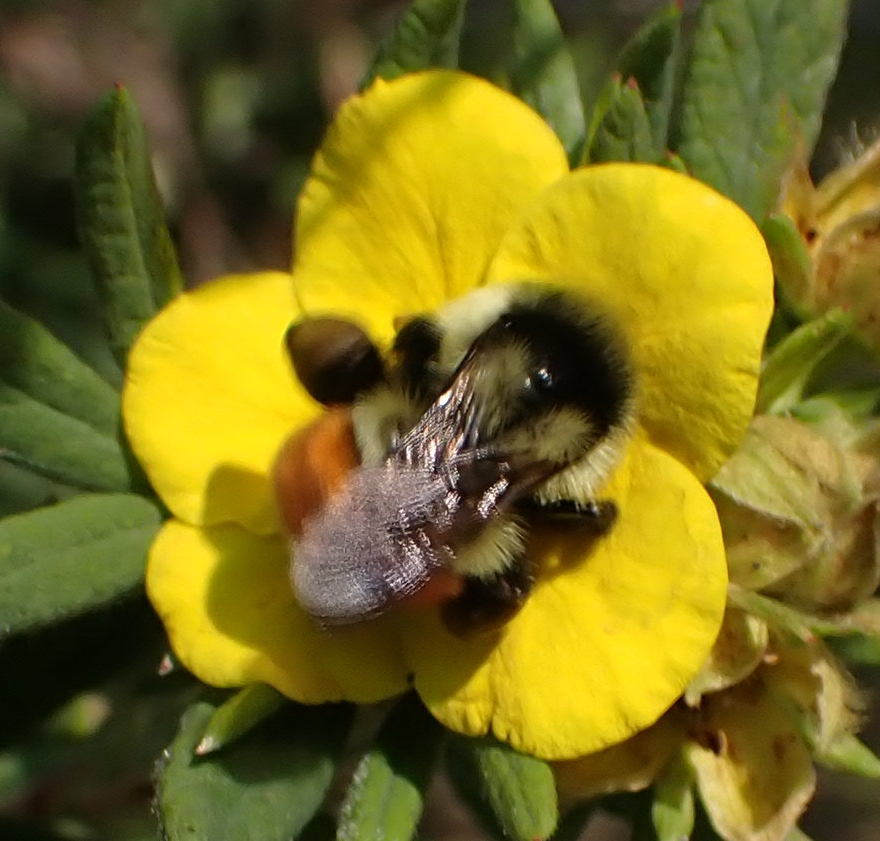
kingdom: Animalia
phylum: Arthropoda
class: Insecta
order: Hymenoptera
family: Apidae
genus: Bombus
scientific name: Bombus ternarius
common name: Tri-colored bumble bee
